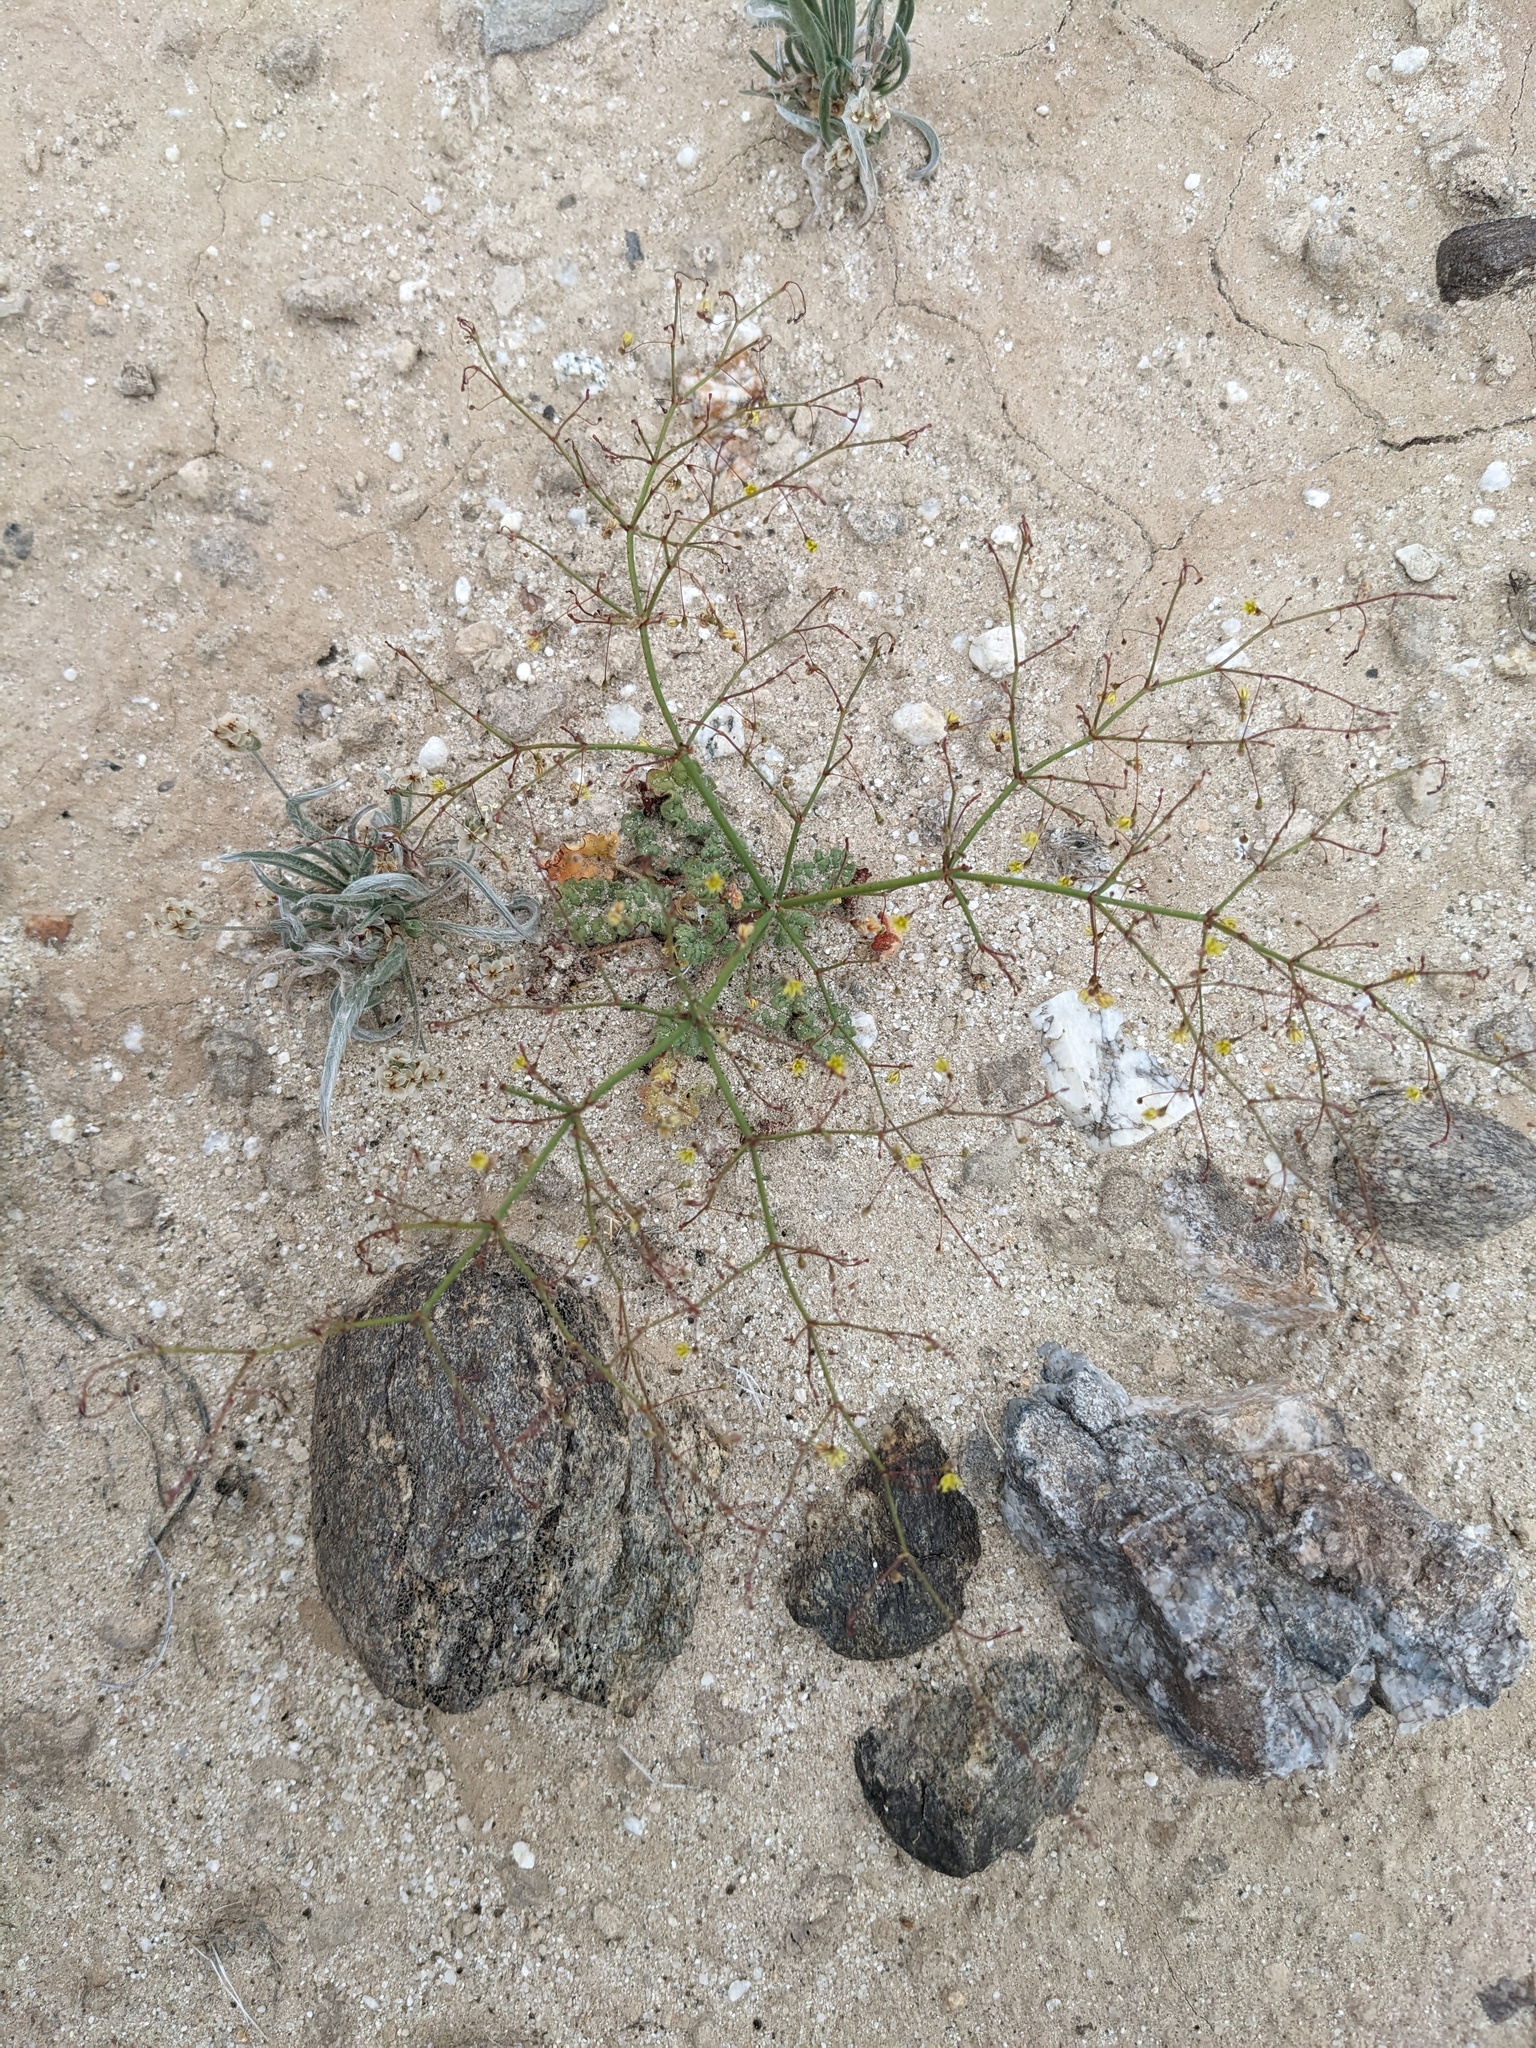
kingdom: Plantae
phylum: Tracheophyta
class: Magnoliopsida
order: Caryophyllales
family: Polygonaceae
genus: Eriogonum
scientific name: Eriogonum trichopes
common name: Little desert trumpet
